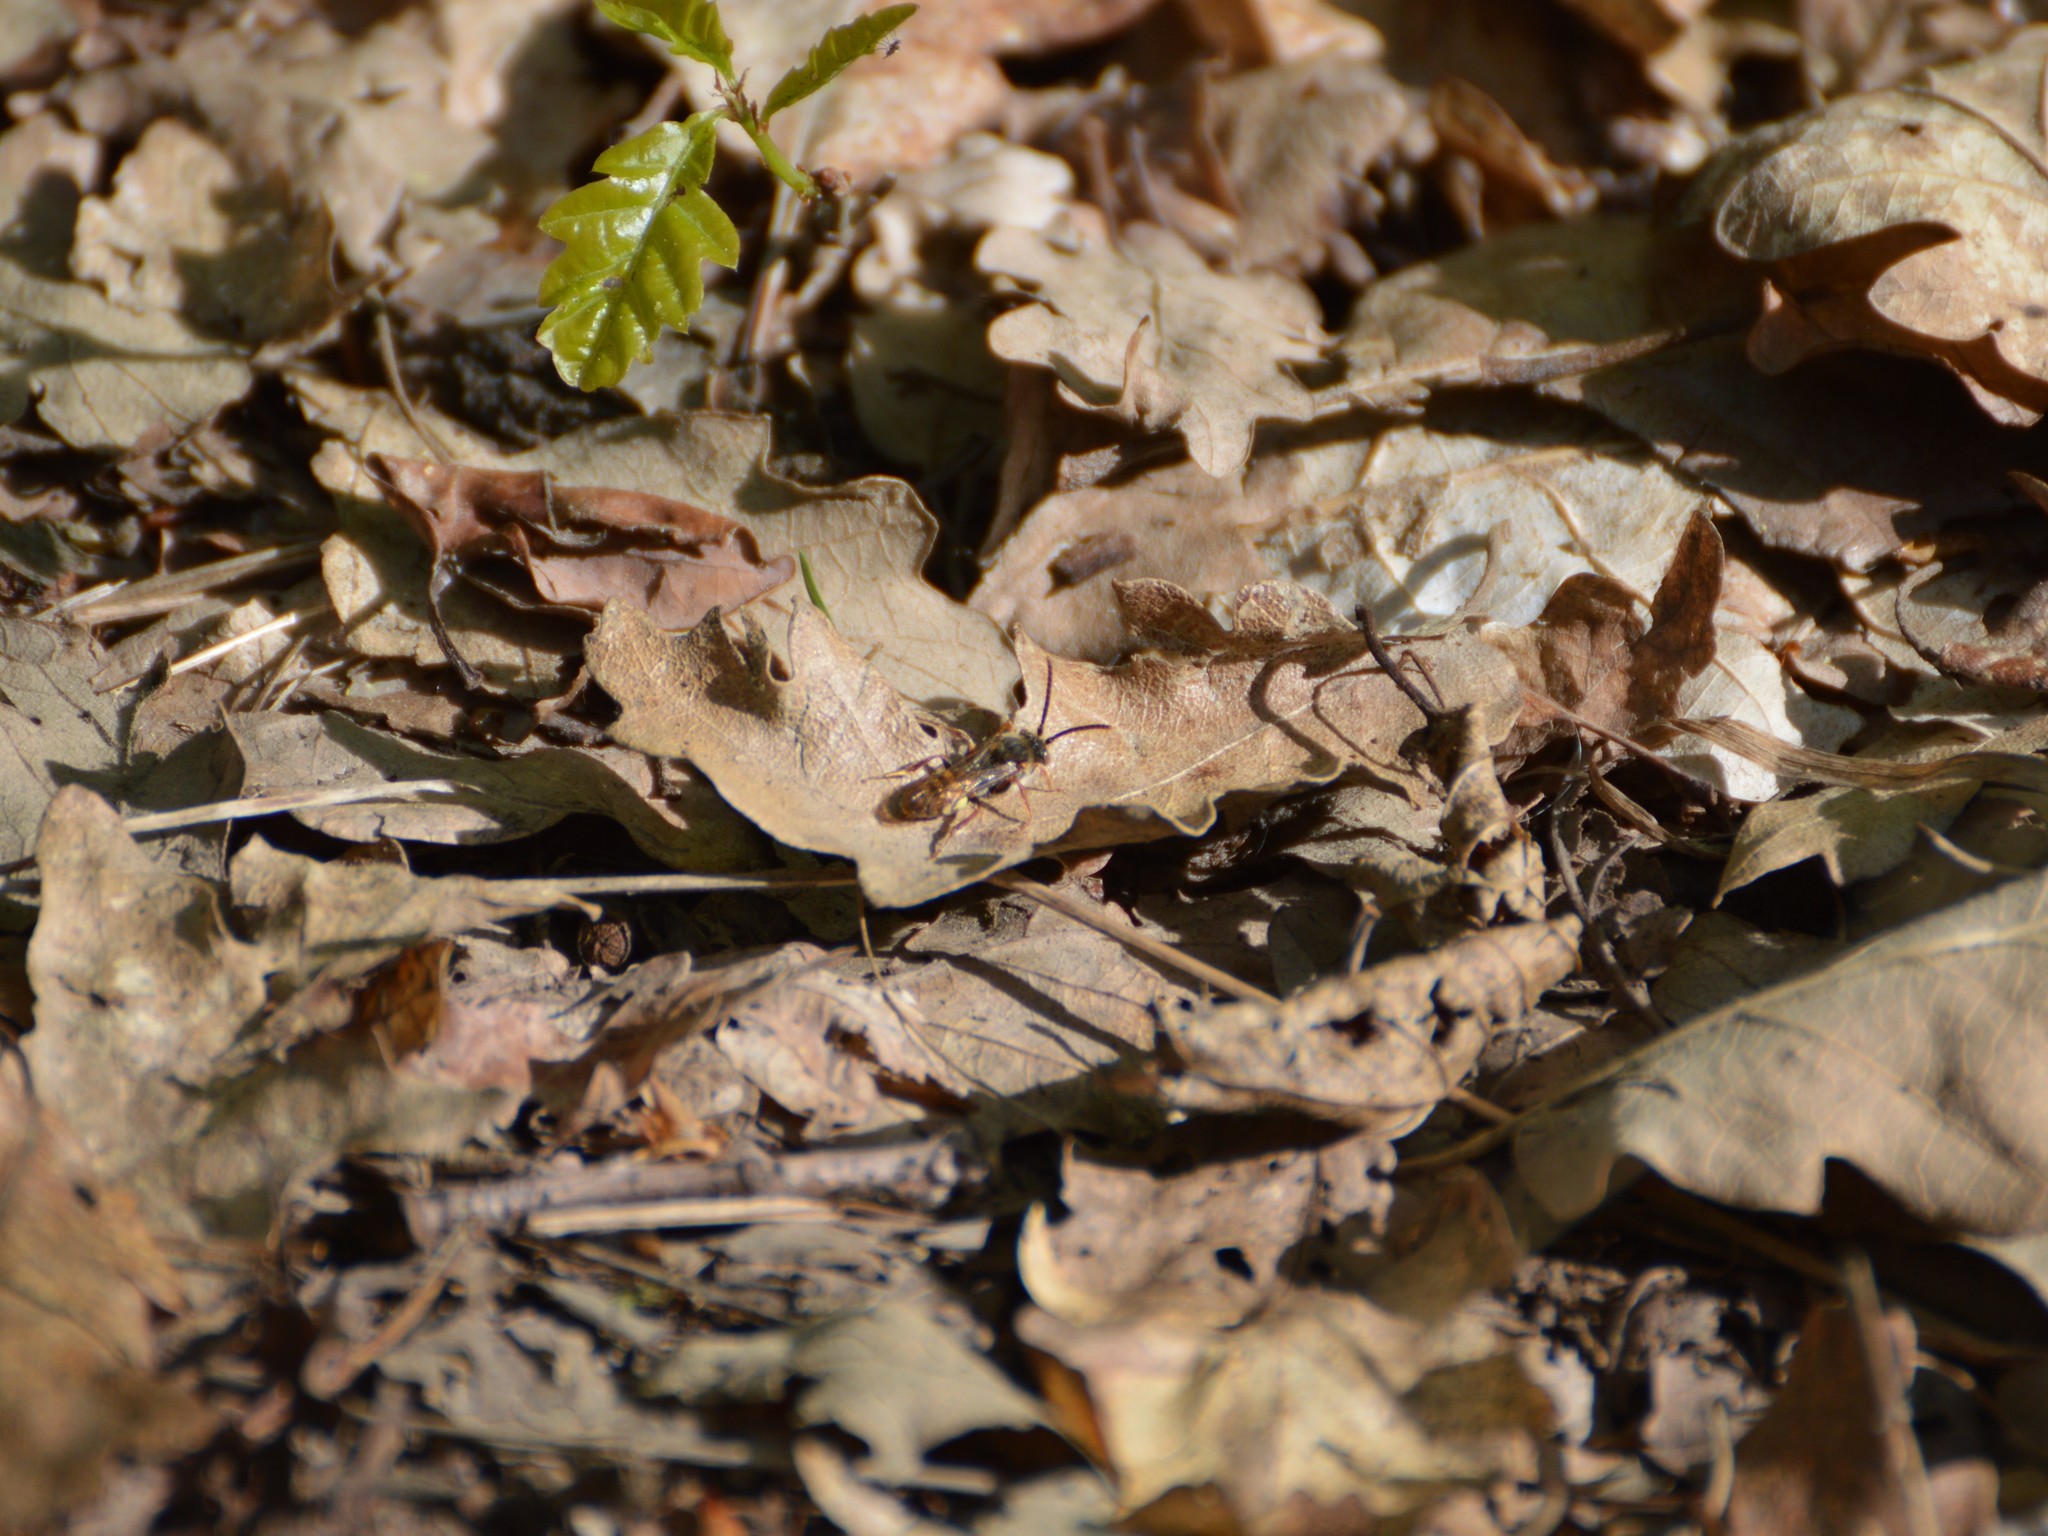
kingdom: Animalia
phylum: Arthropoda
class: Insecta
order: Hymenoptera
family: Apidae
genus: Nomada
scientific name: Nomada
